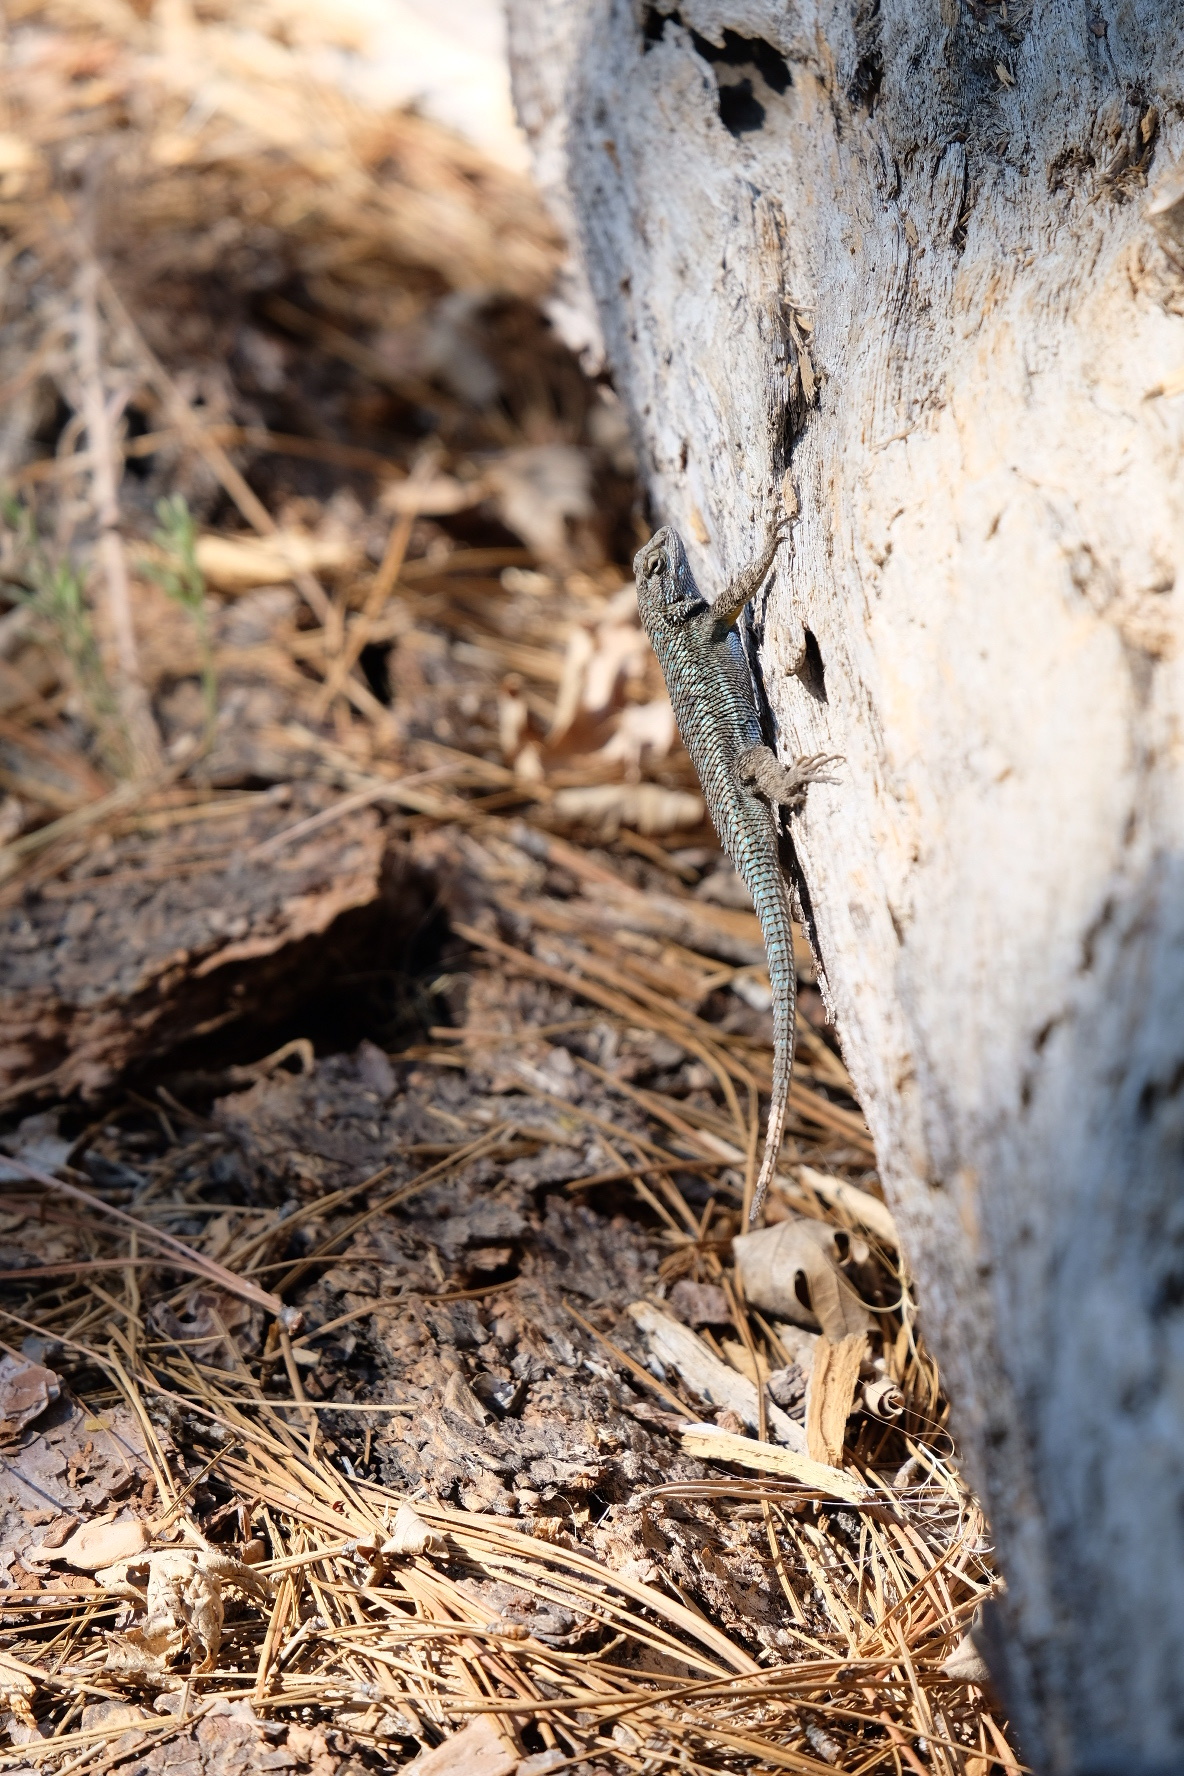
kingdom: Animalia
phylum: Chordata
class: Squamata
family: Phrynosomatidae
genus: Sceloporus
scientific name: Sceloporus occidentalis
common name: Western fence lizard
